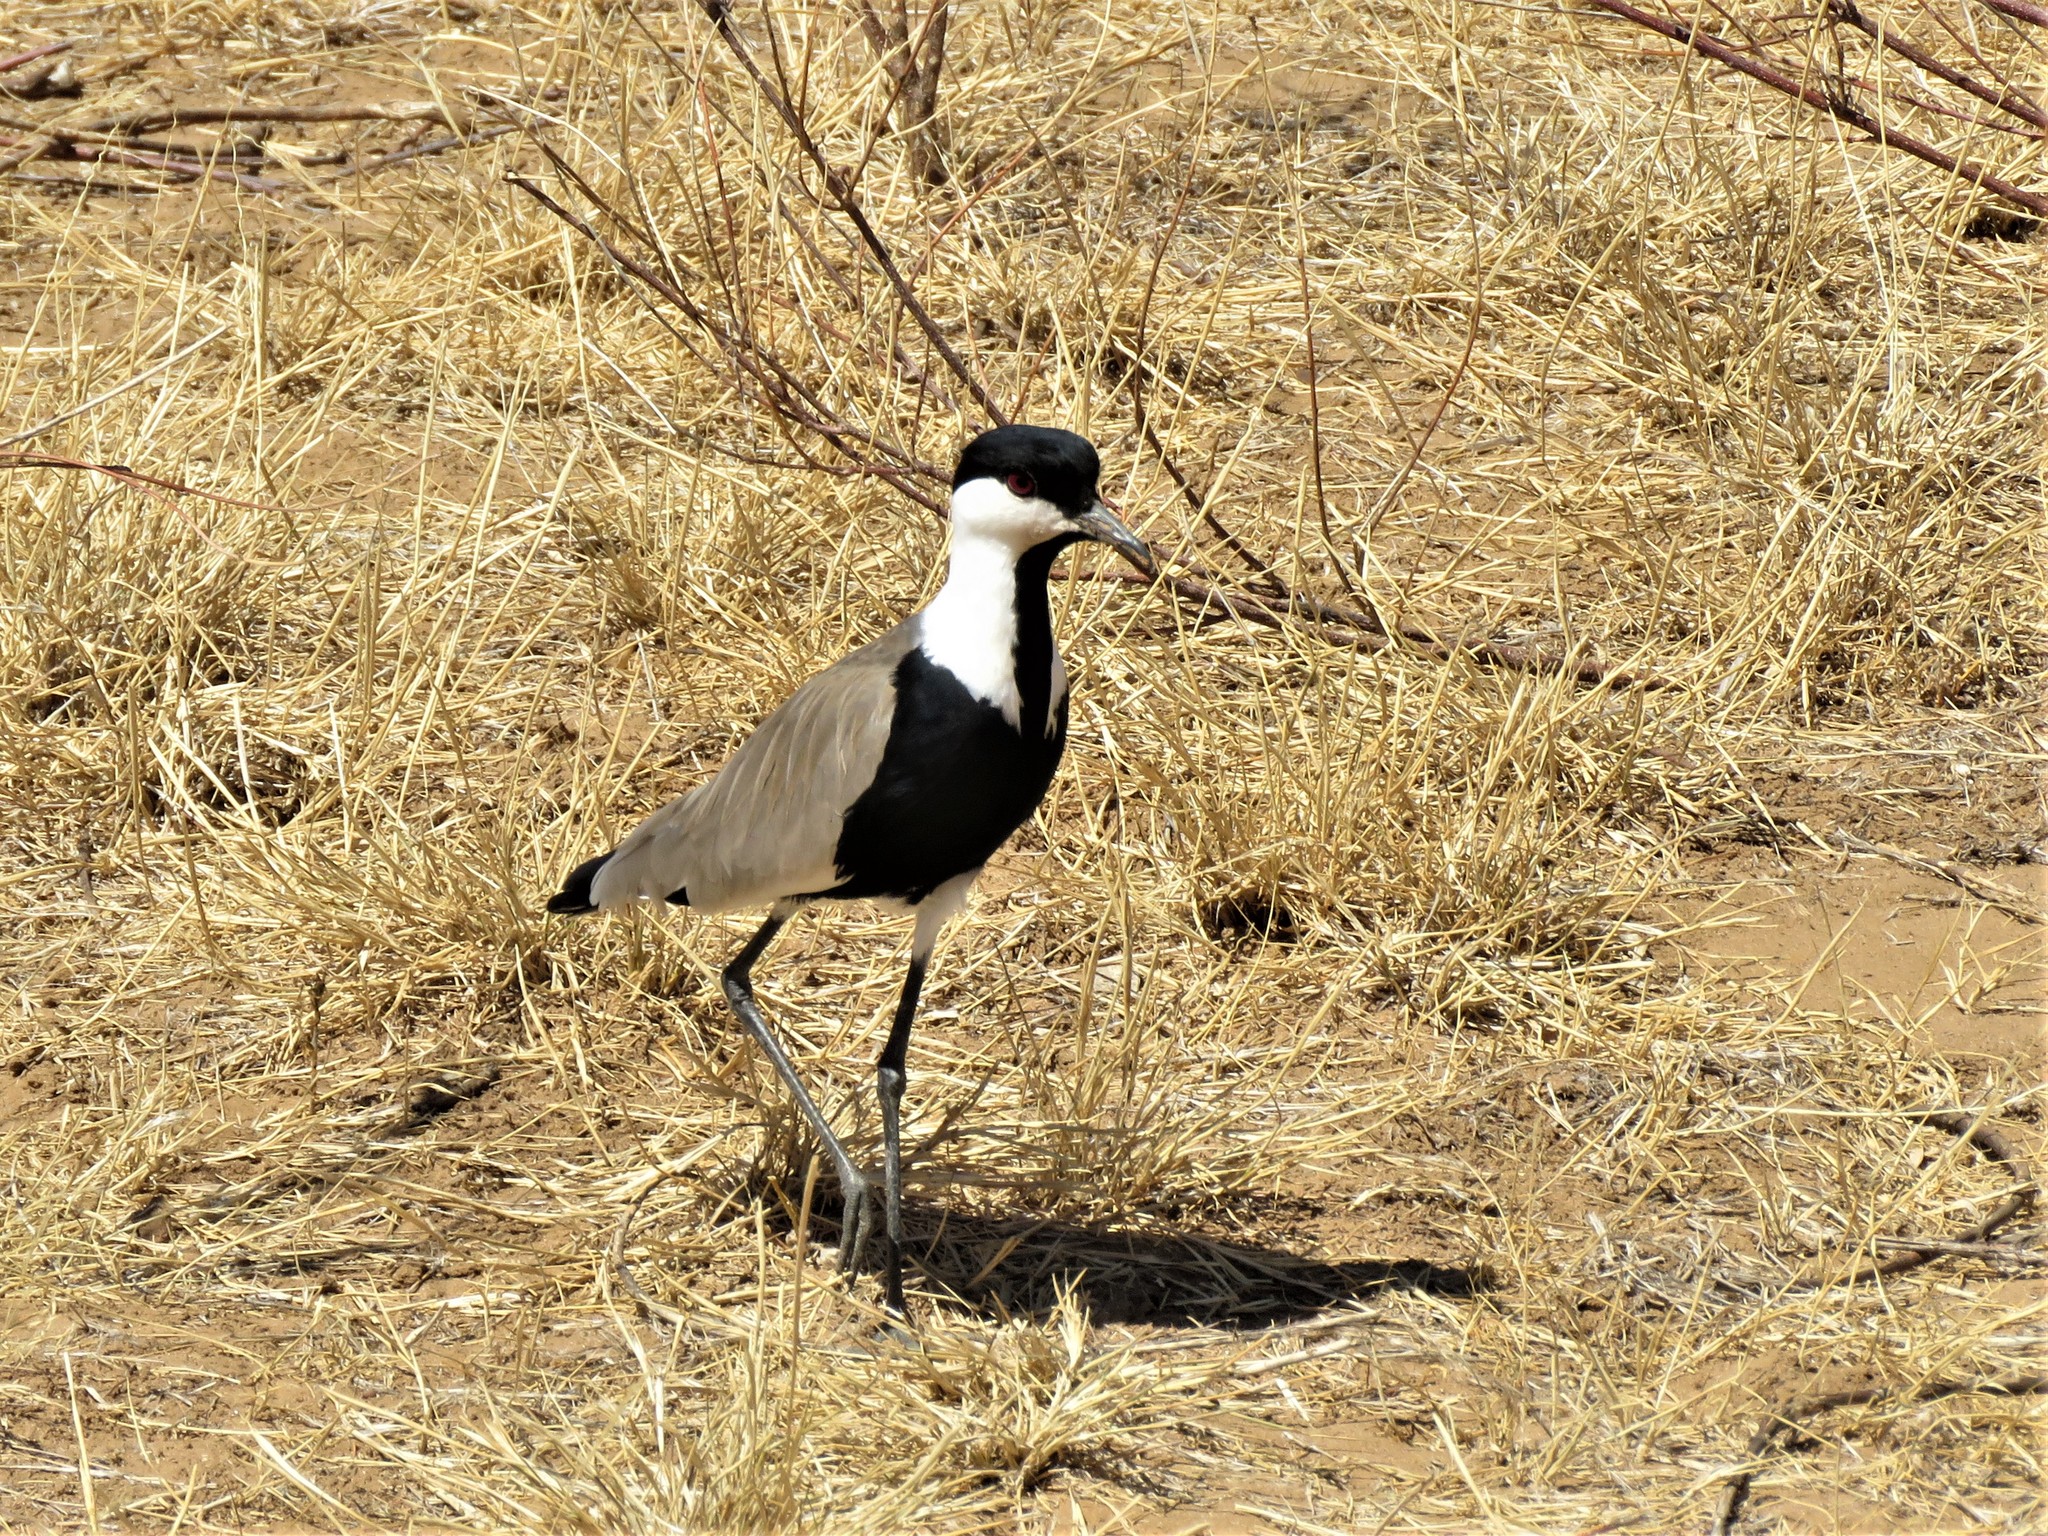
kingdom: Animalia
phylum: Chordata
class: Aves
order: Charadriiformes
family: Charadriidae
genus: Vanellus
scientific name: Vanellus spinosus
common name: Spur-winged lapwing
